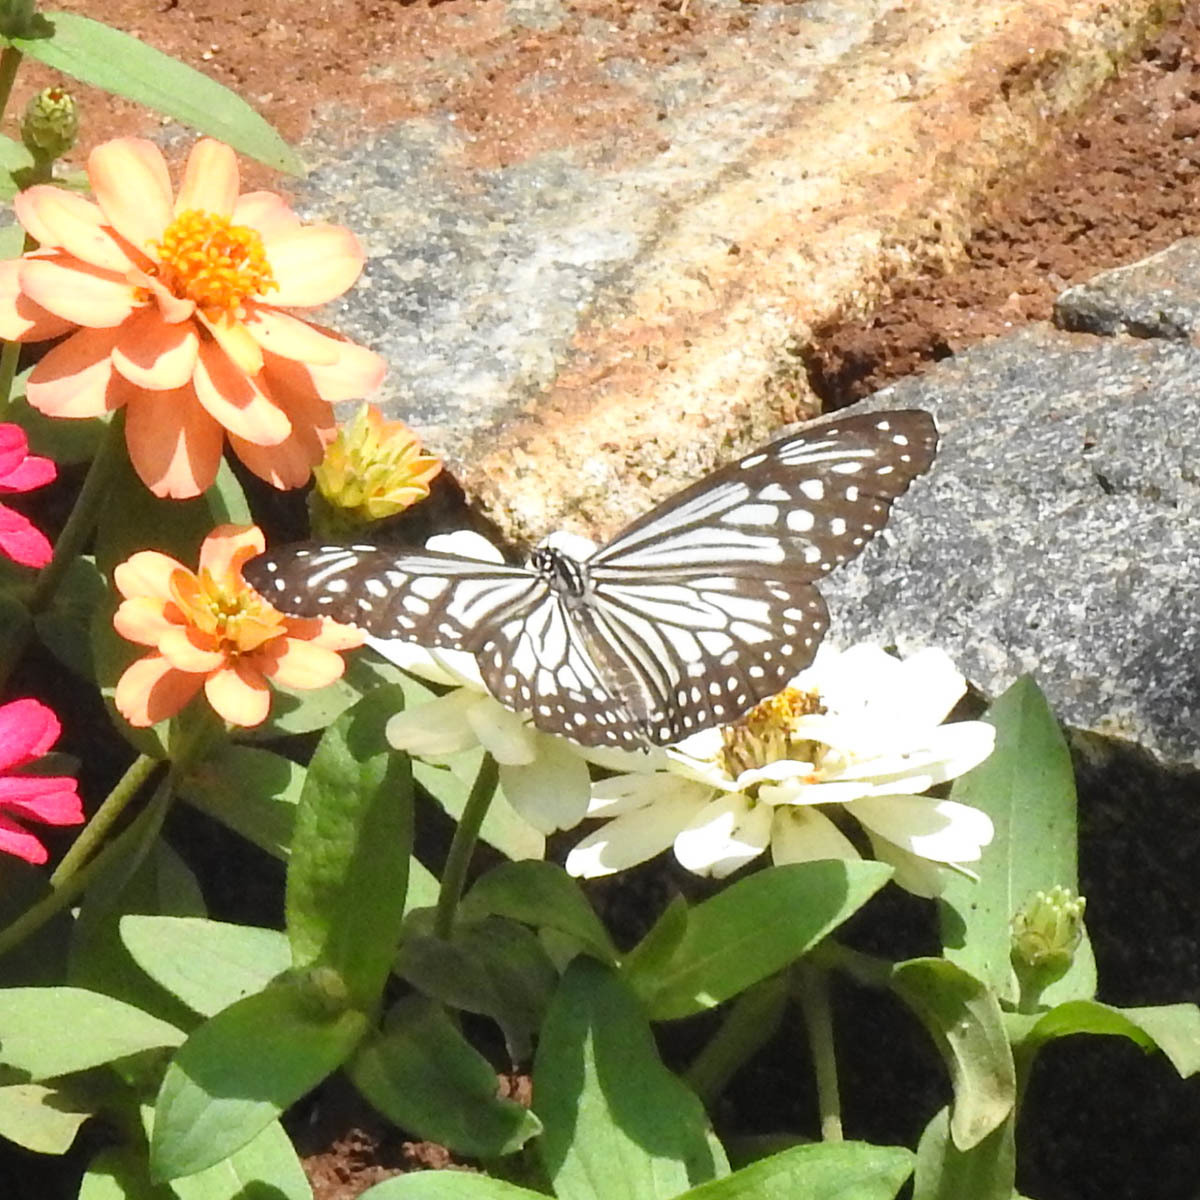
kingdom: Animalia
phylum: Arthropoda
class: Insecta
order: Lepidoptera
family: Nymphalidae
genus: Parantica
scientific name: Parantica aglea
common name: Glassy tiger
